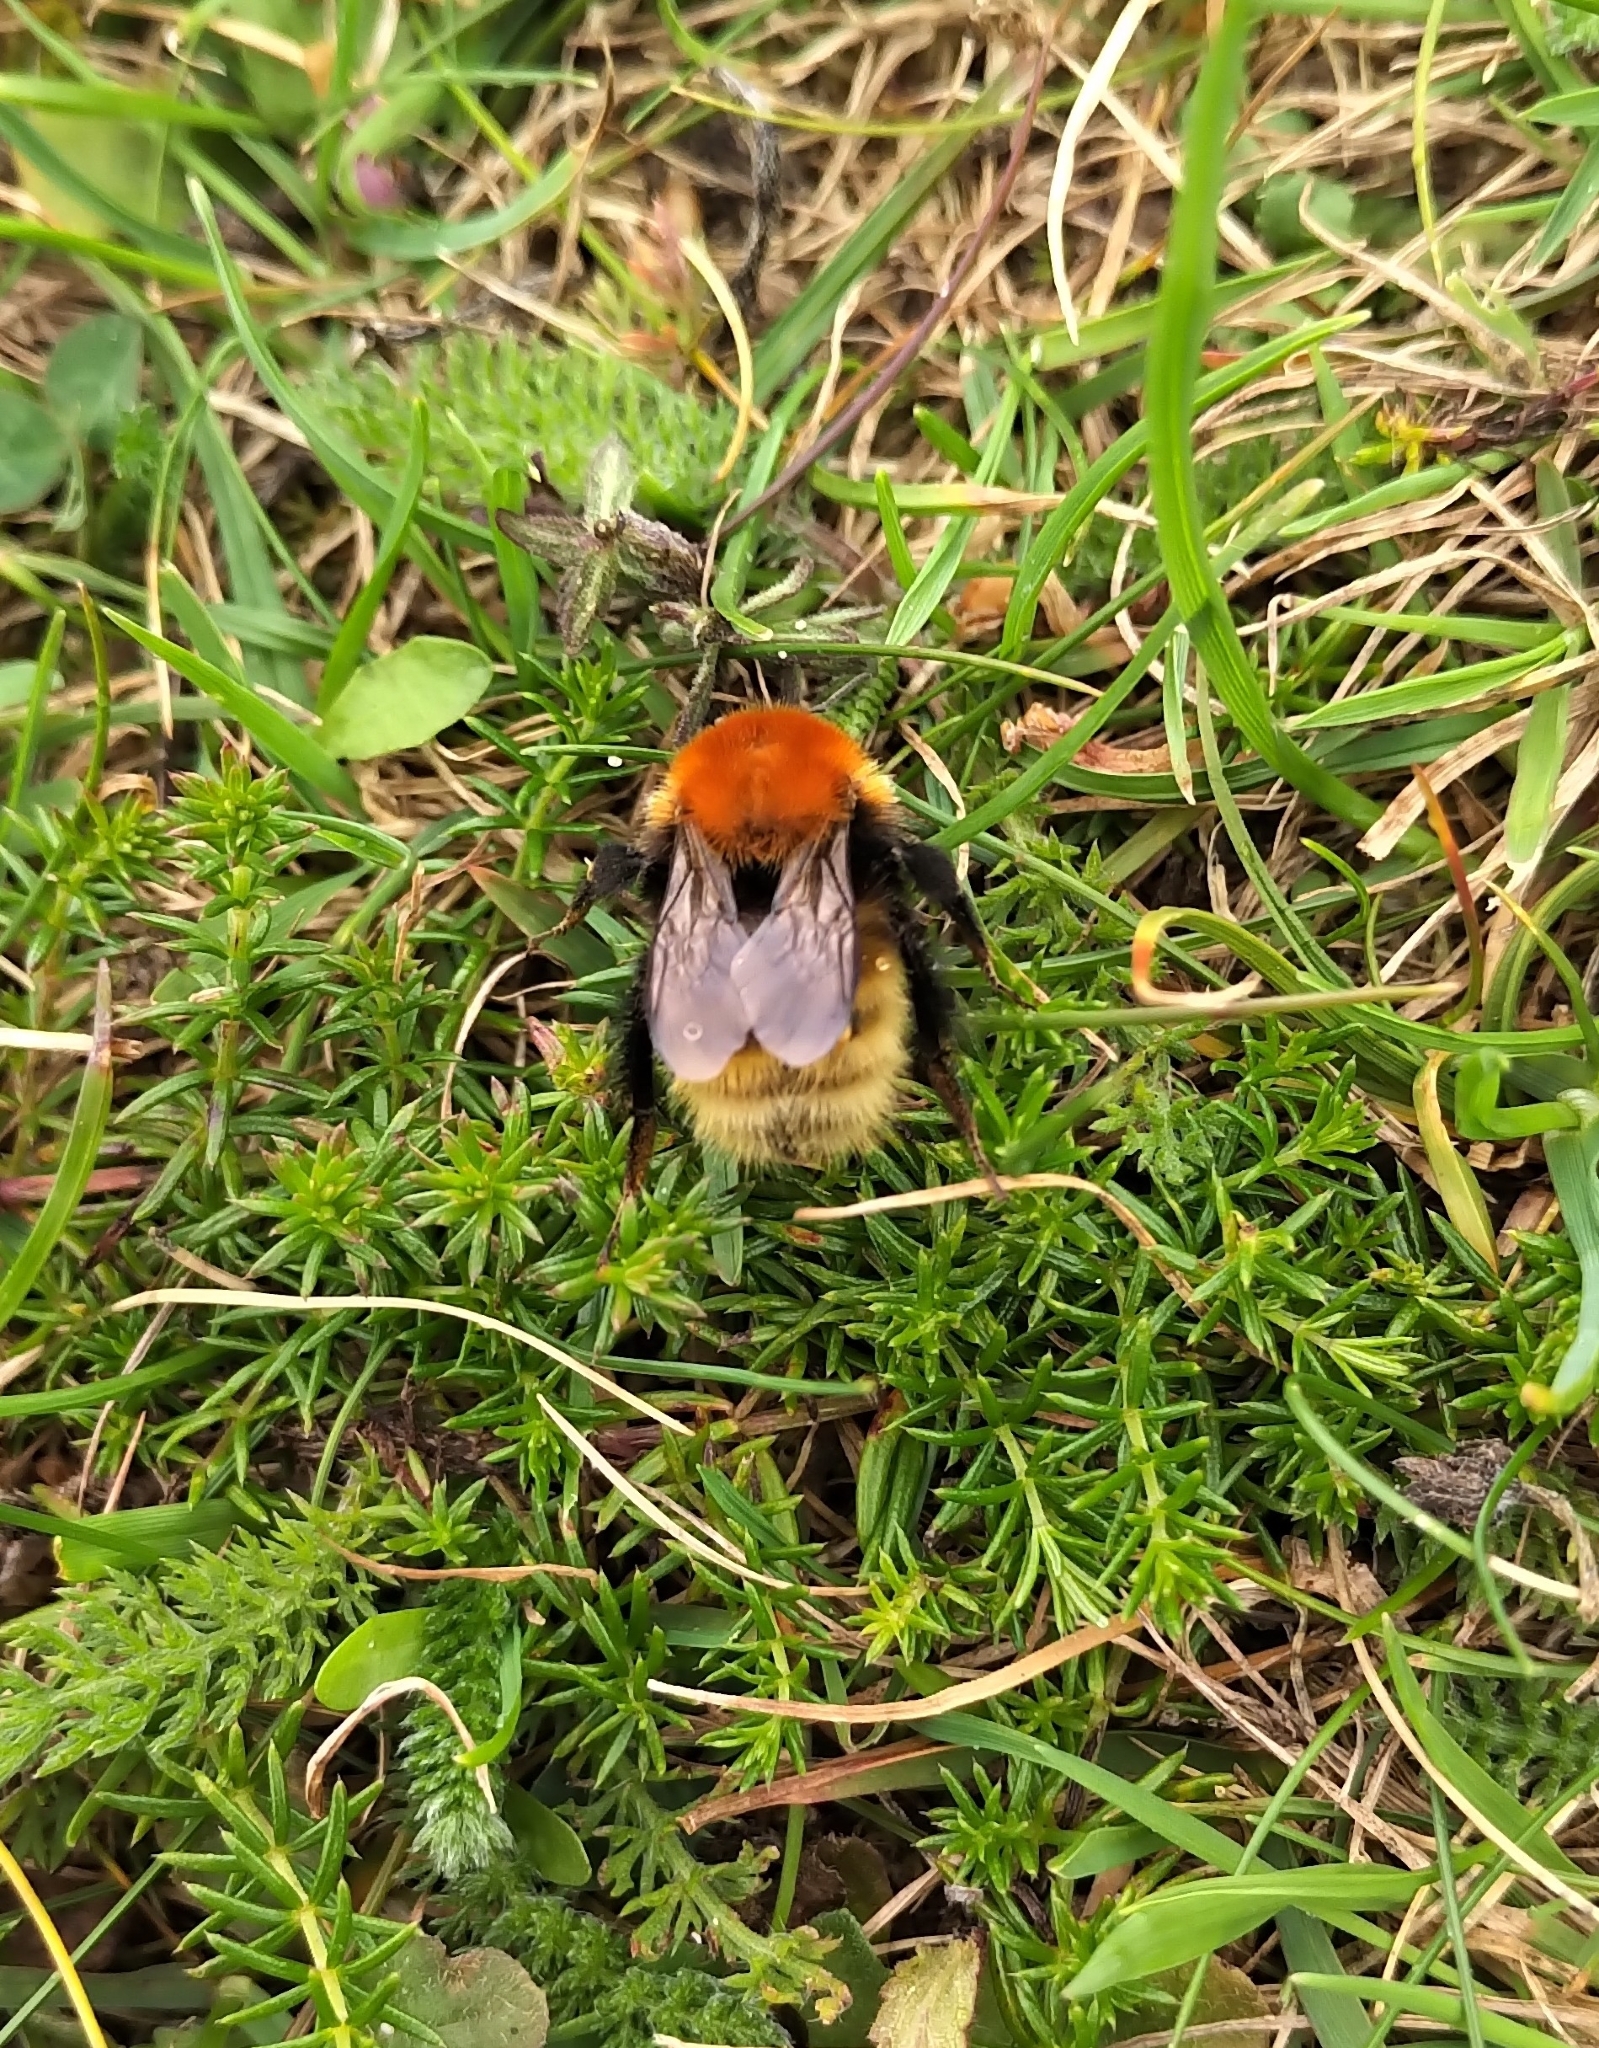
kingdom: Animalia
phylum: Arthropoda
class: Insecta
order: Hymenoptera
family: Apidae
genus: Bombus
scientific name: Bombus muscorum
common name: Moss carder-bee
